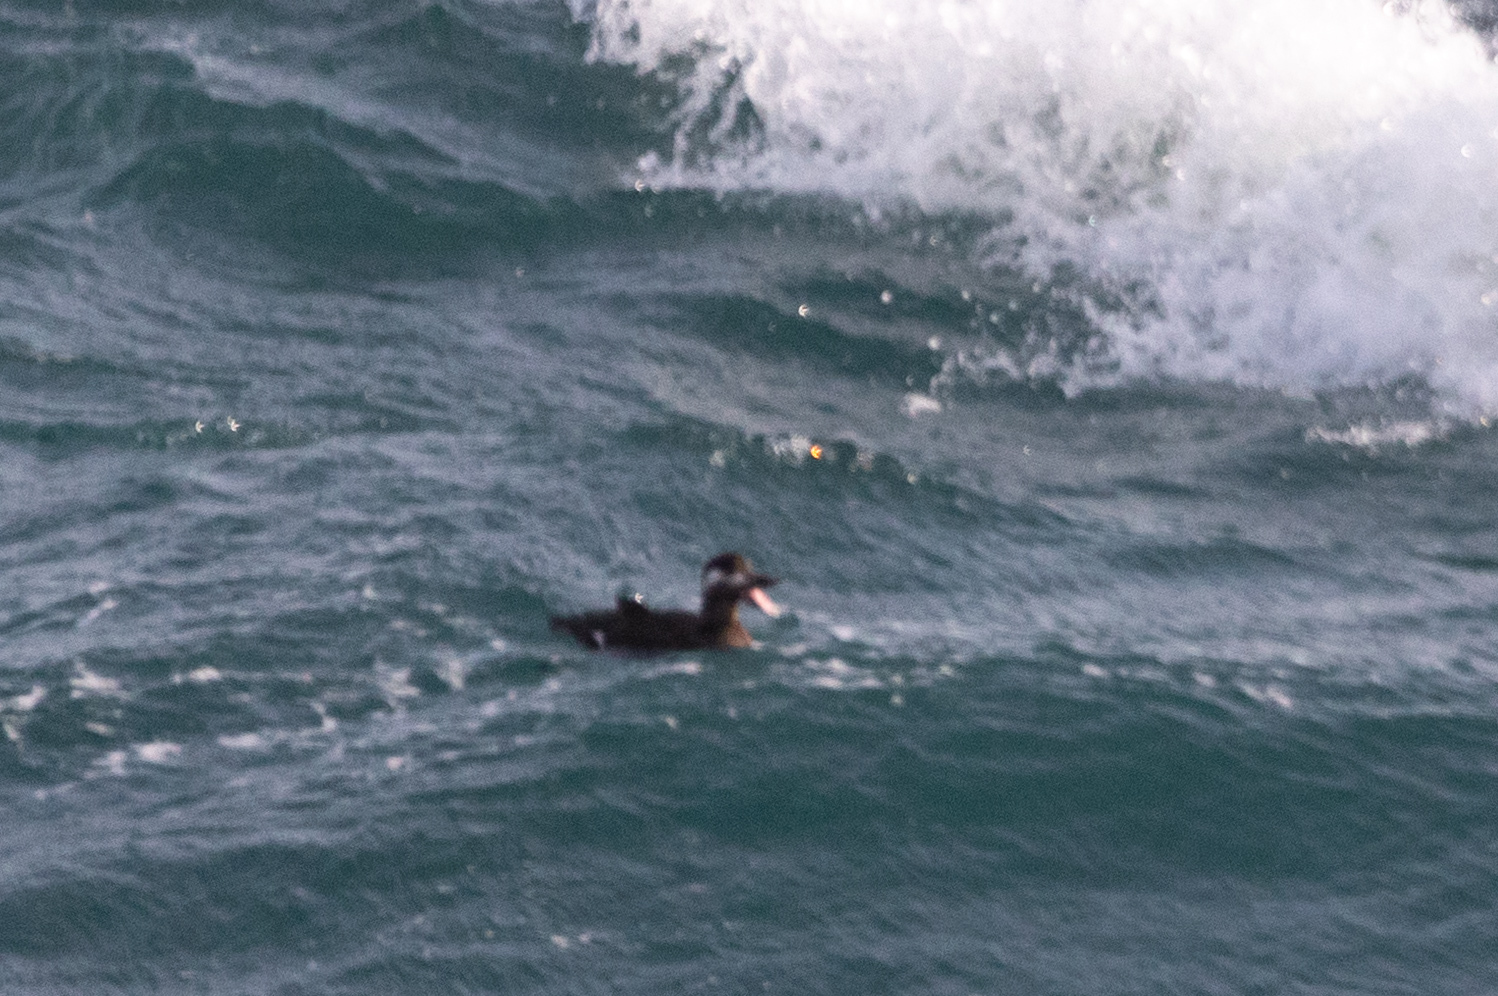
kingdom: Animalia
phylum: Chordata
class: Aves
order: Anseriformes
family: Anatidae
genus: Melanitta
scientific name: Melanitta deglandi
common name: White-winged scoter
